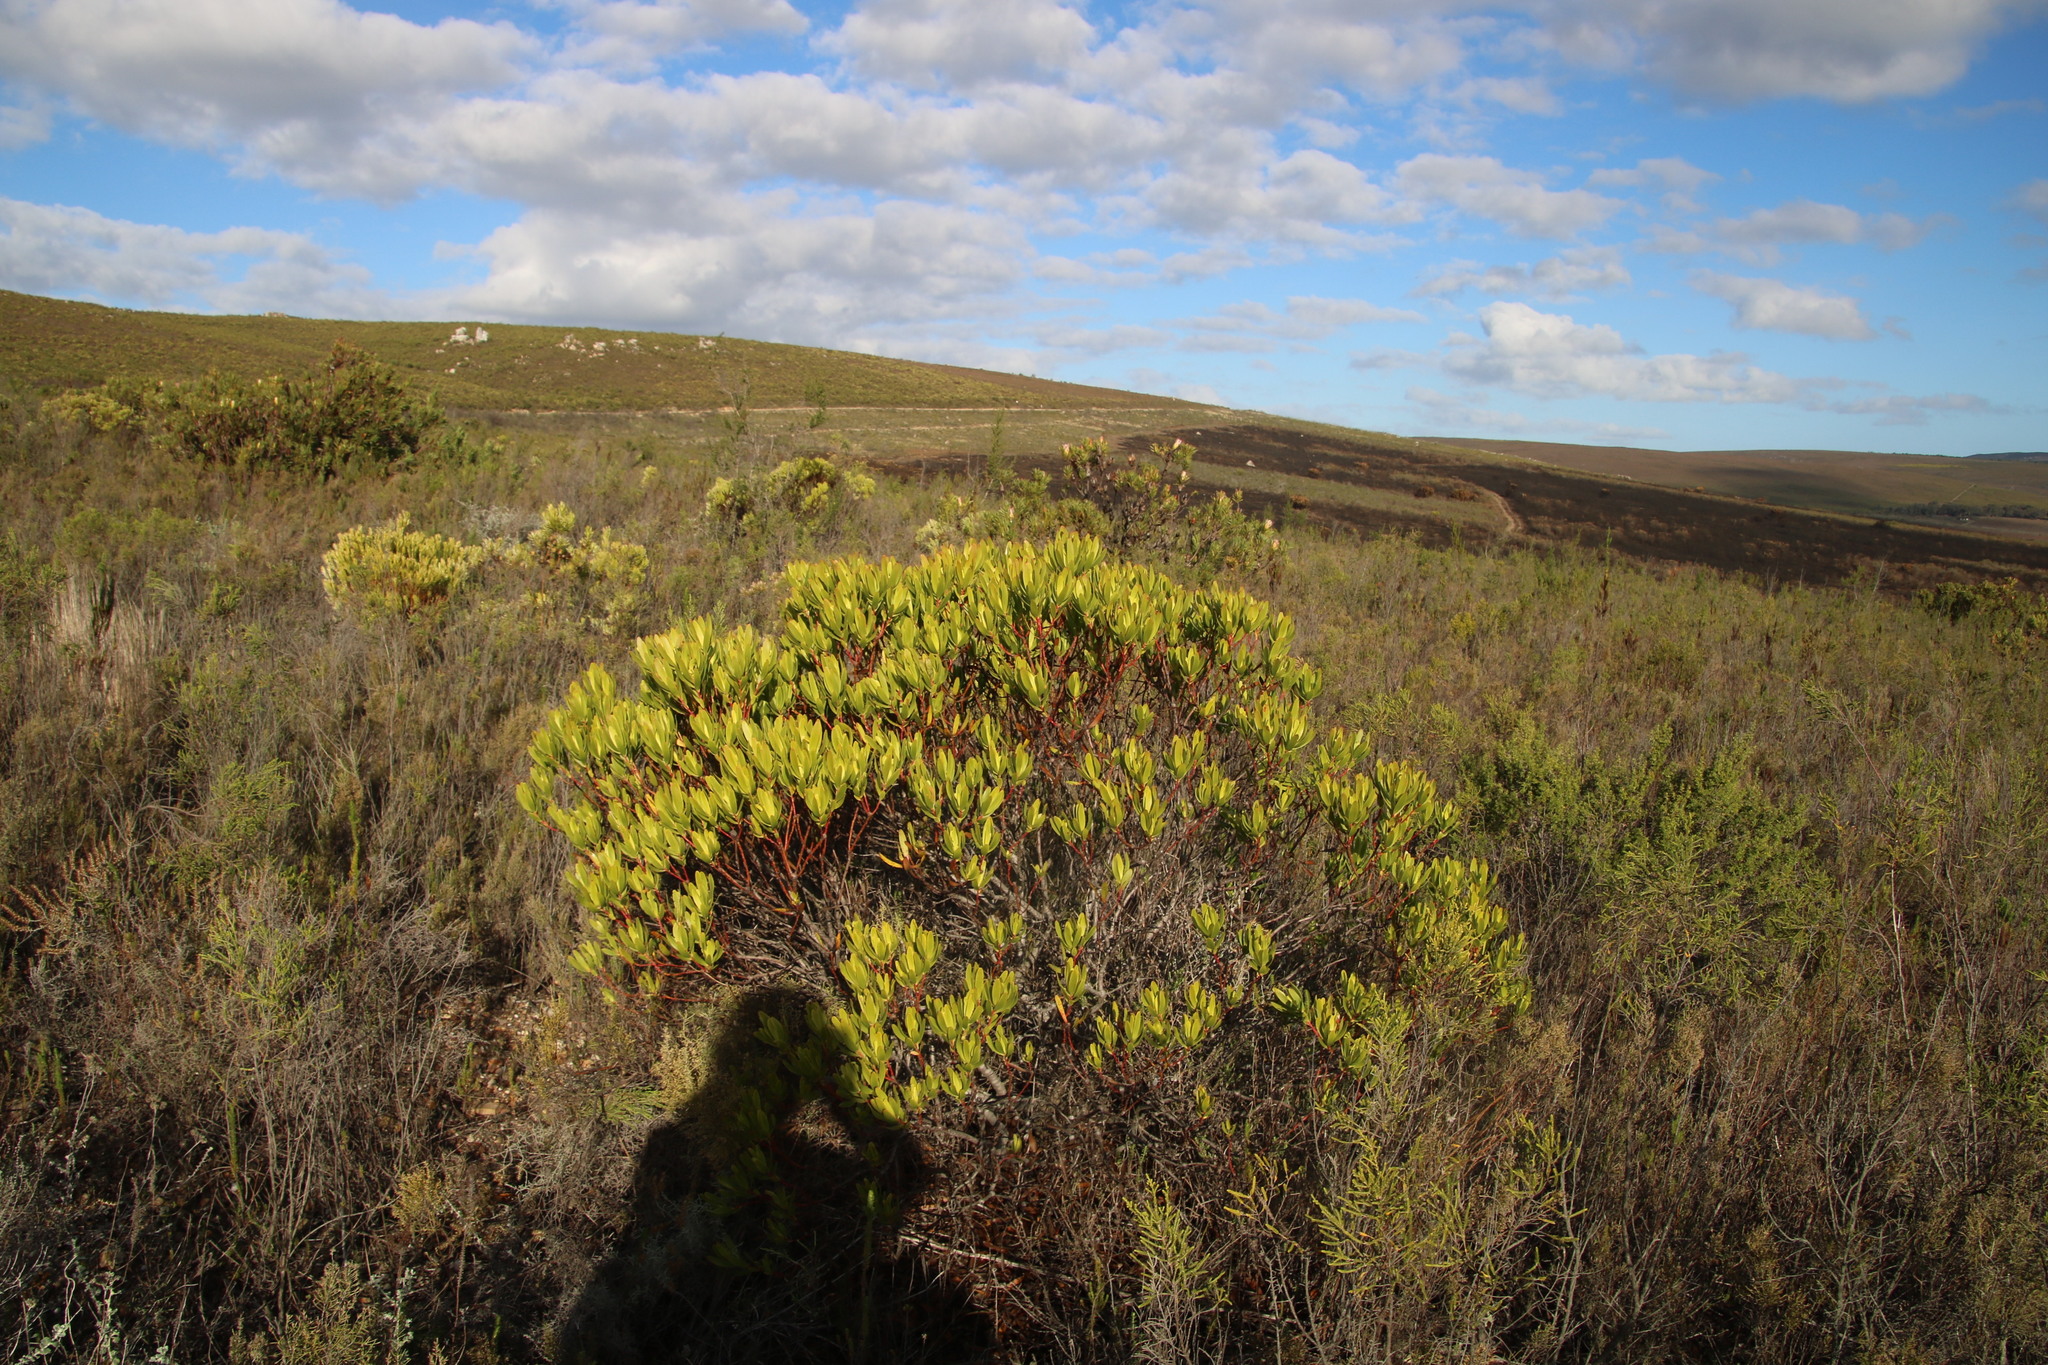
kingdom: Plantae
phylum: Tracheophyta
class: Magnoliopsida
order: Proteales
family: Proteaceae
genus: Leucadendron
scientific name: Leucadendron laureolum
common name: Golden sunshinebush
